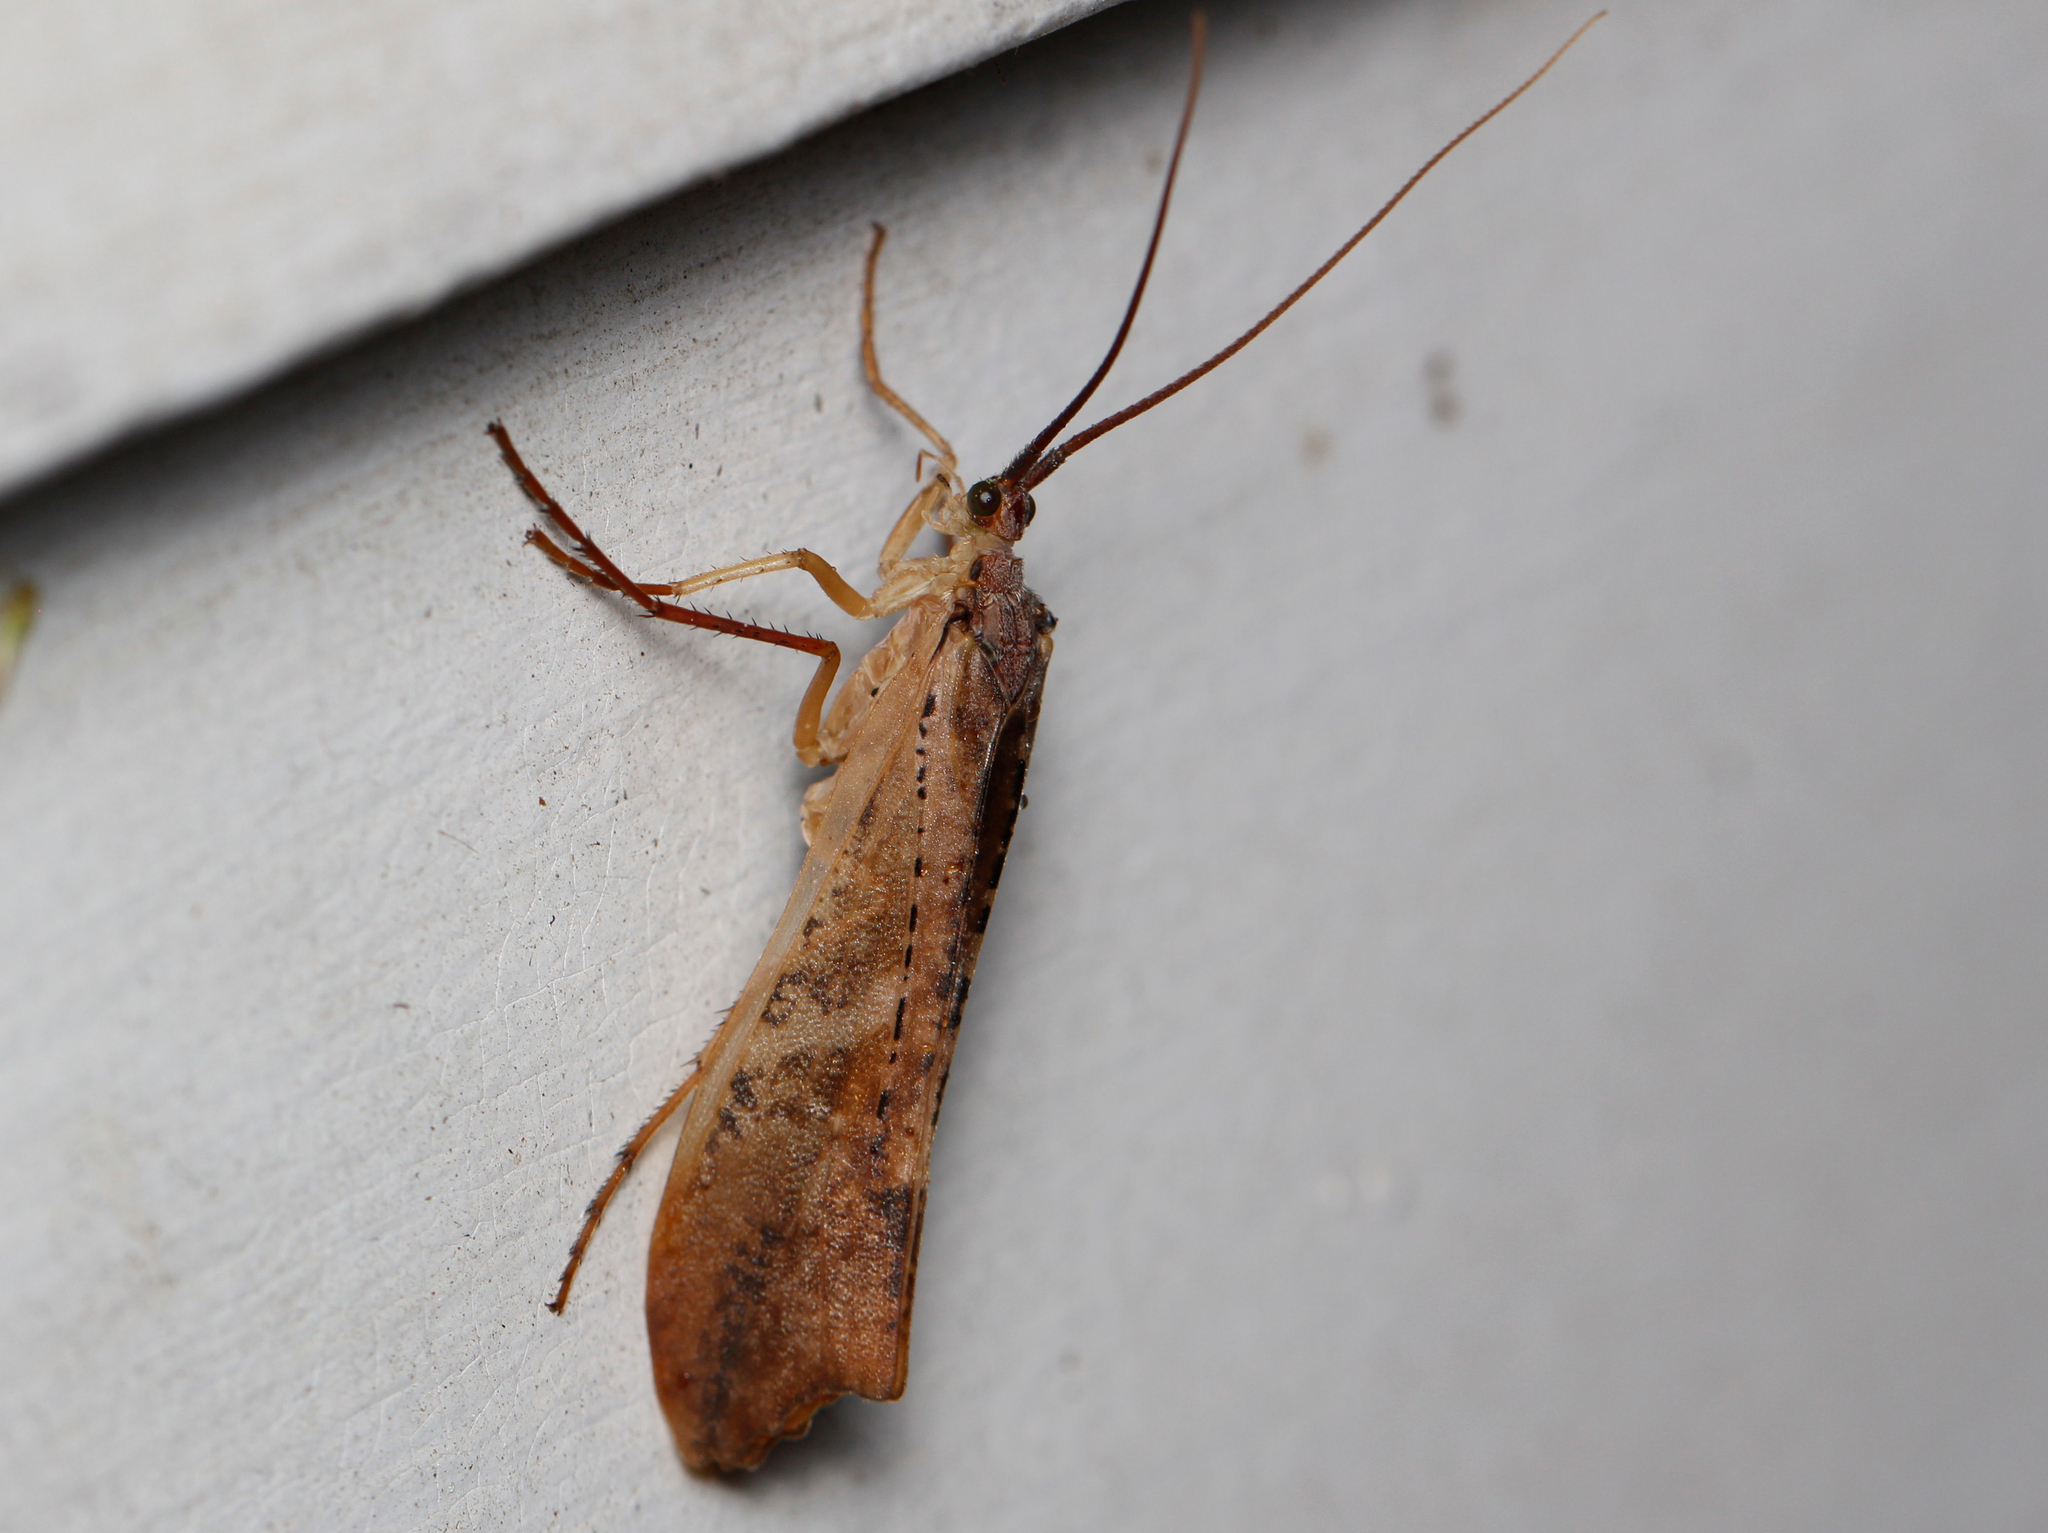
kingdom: Animalia
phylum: Arthropoda
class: Insecta
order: Trichoptera
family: Limnephilidae
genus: Nemotaulius
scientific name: Nemotaulius hostilis
